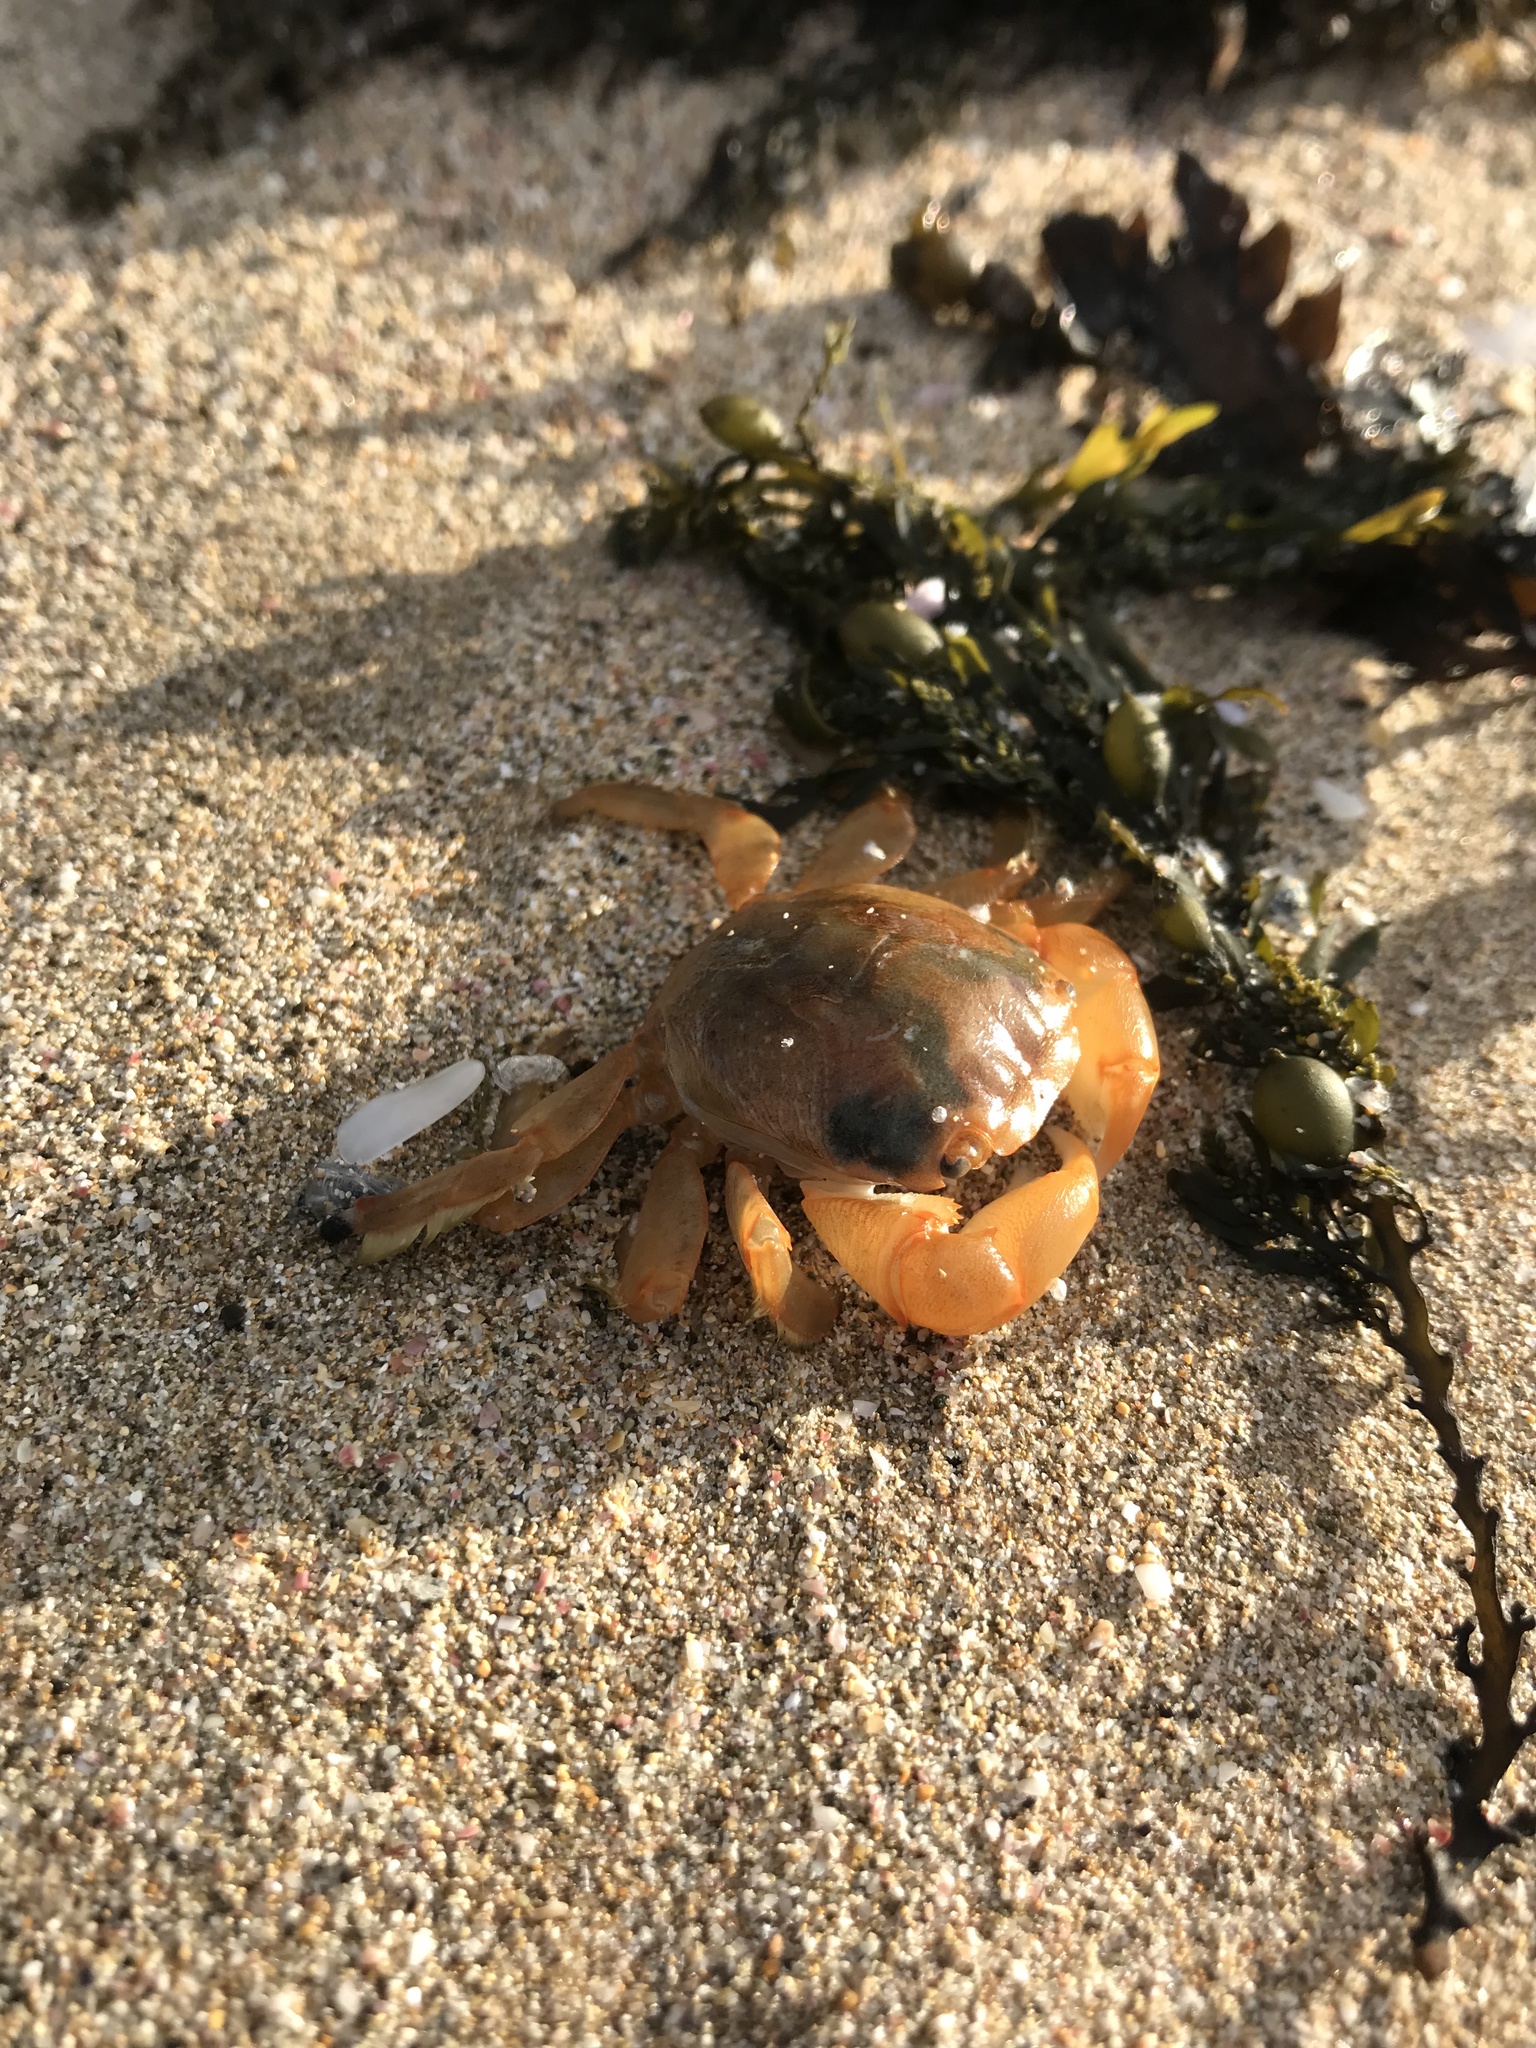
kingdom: Animalia
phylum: Arthropoda
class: Malacostraca
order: Decapoda
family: Grapsidae
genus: Planes
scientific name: Planes minutus
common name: Gulf weed crab
